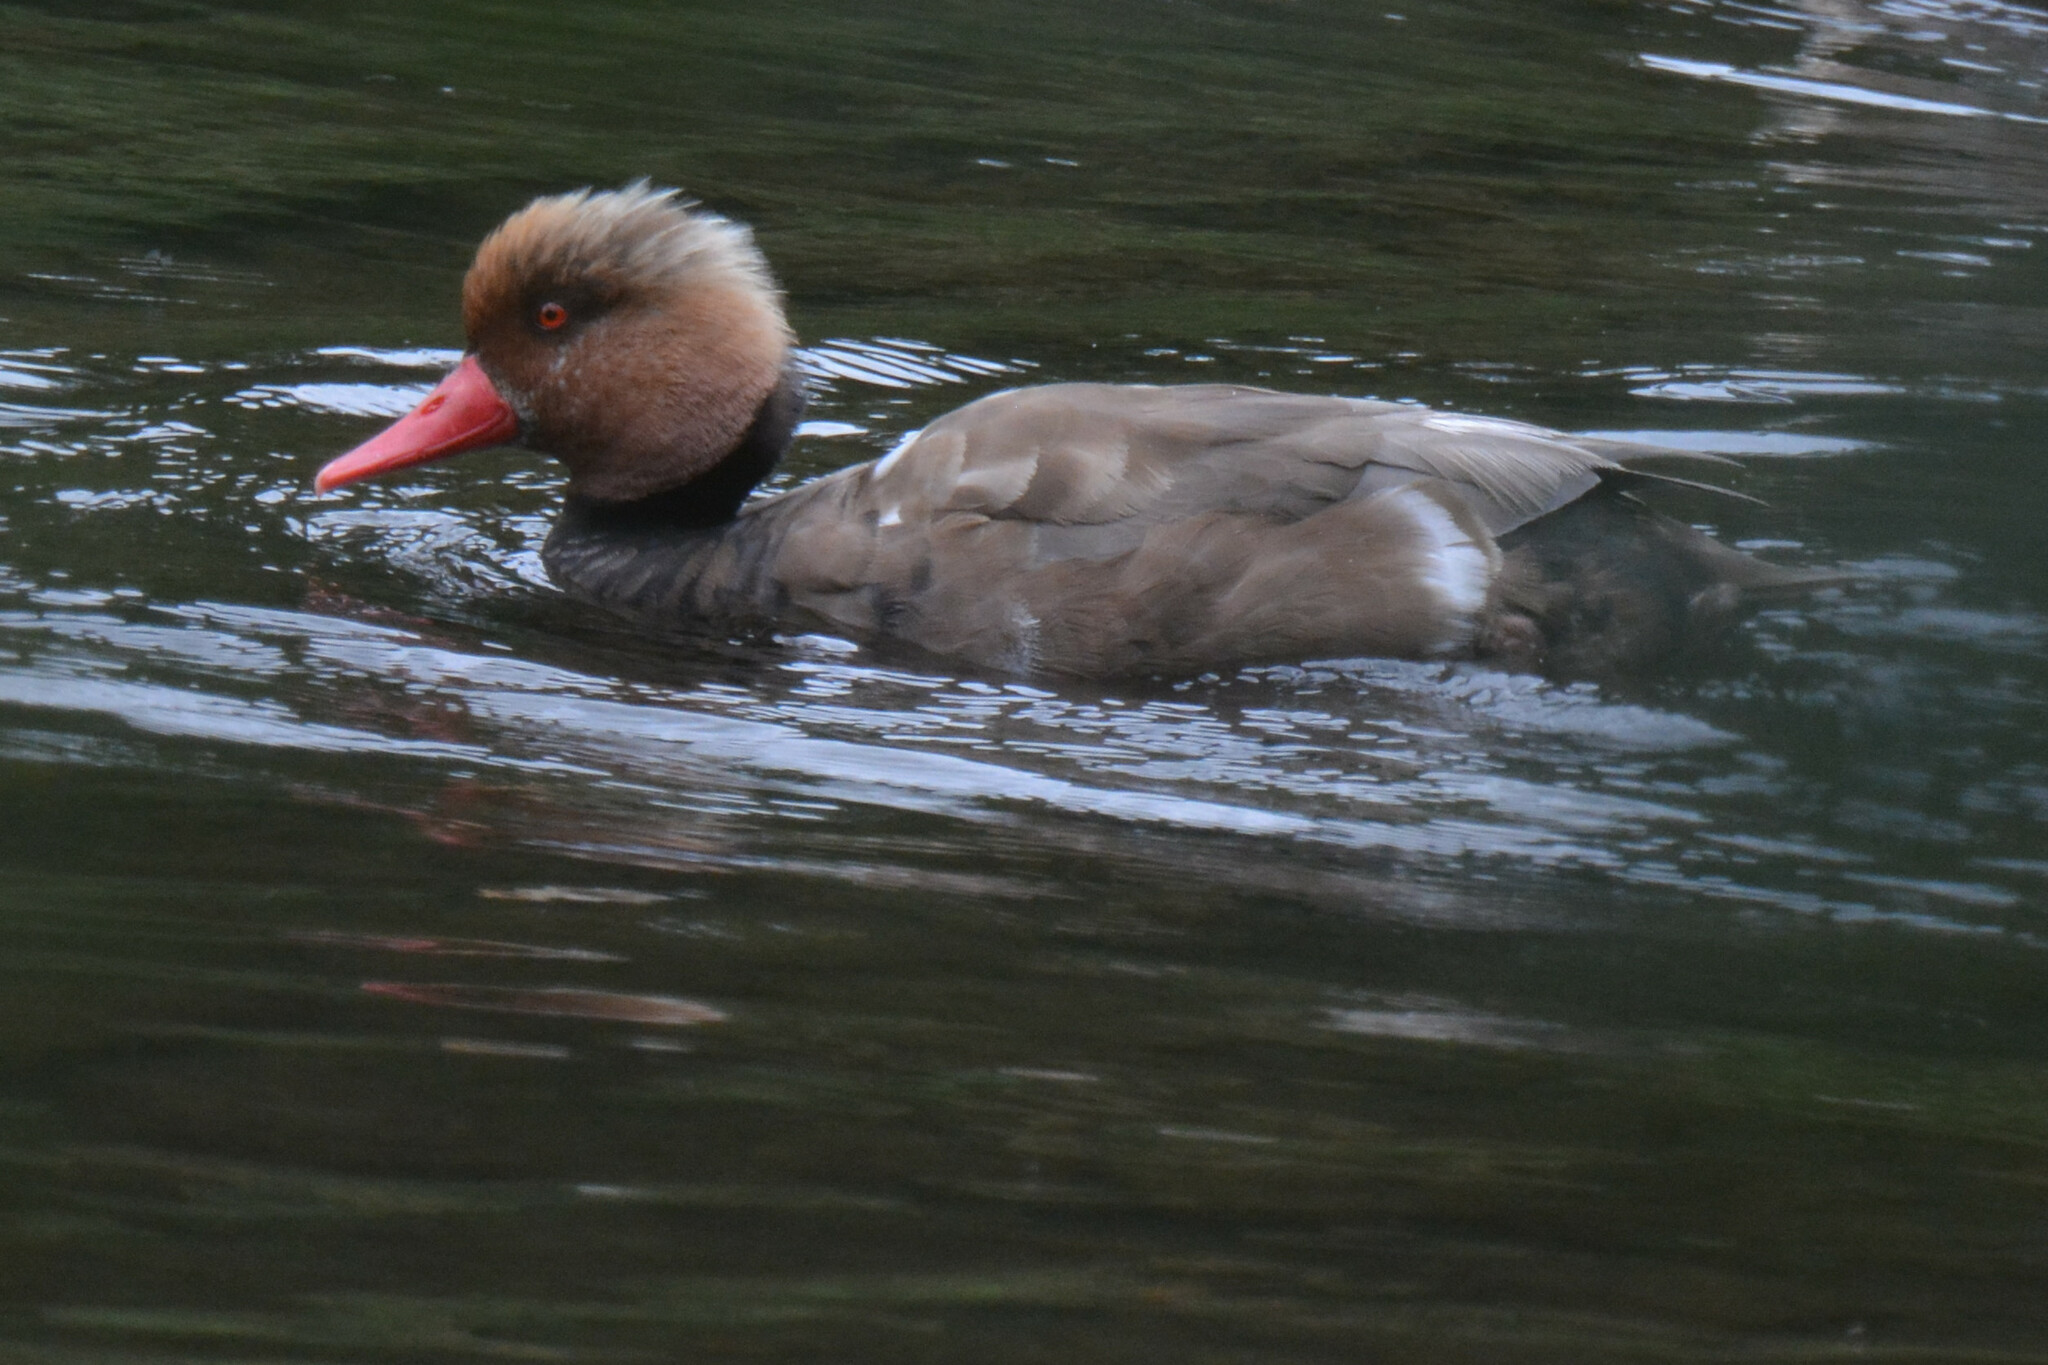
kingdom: Animalia
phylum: Chordata
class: Aves
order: Anseriformes
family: Anatidae
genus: Netta
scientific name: Netta rufina
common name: Red-crested pochard
